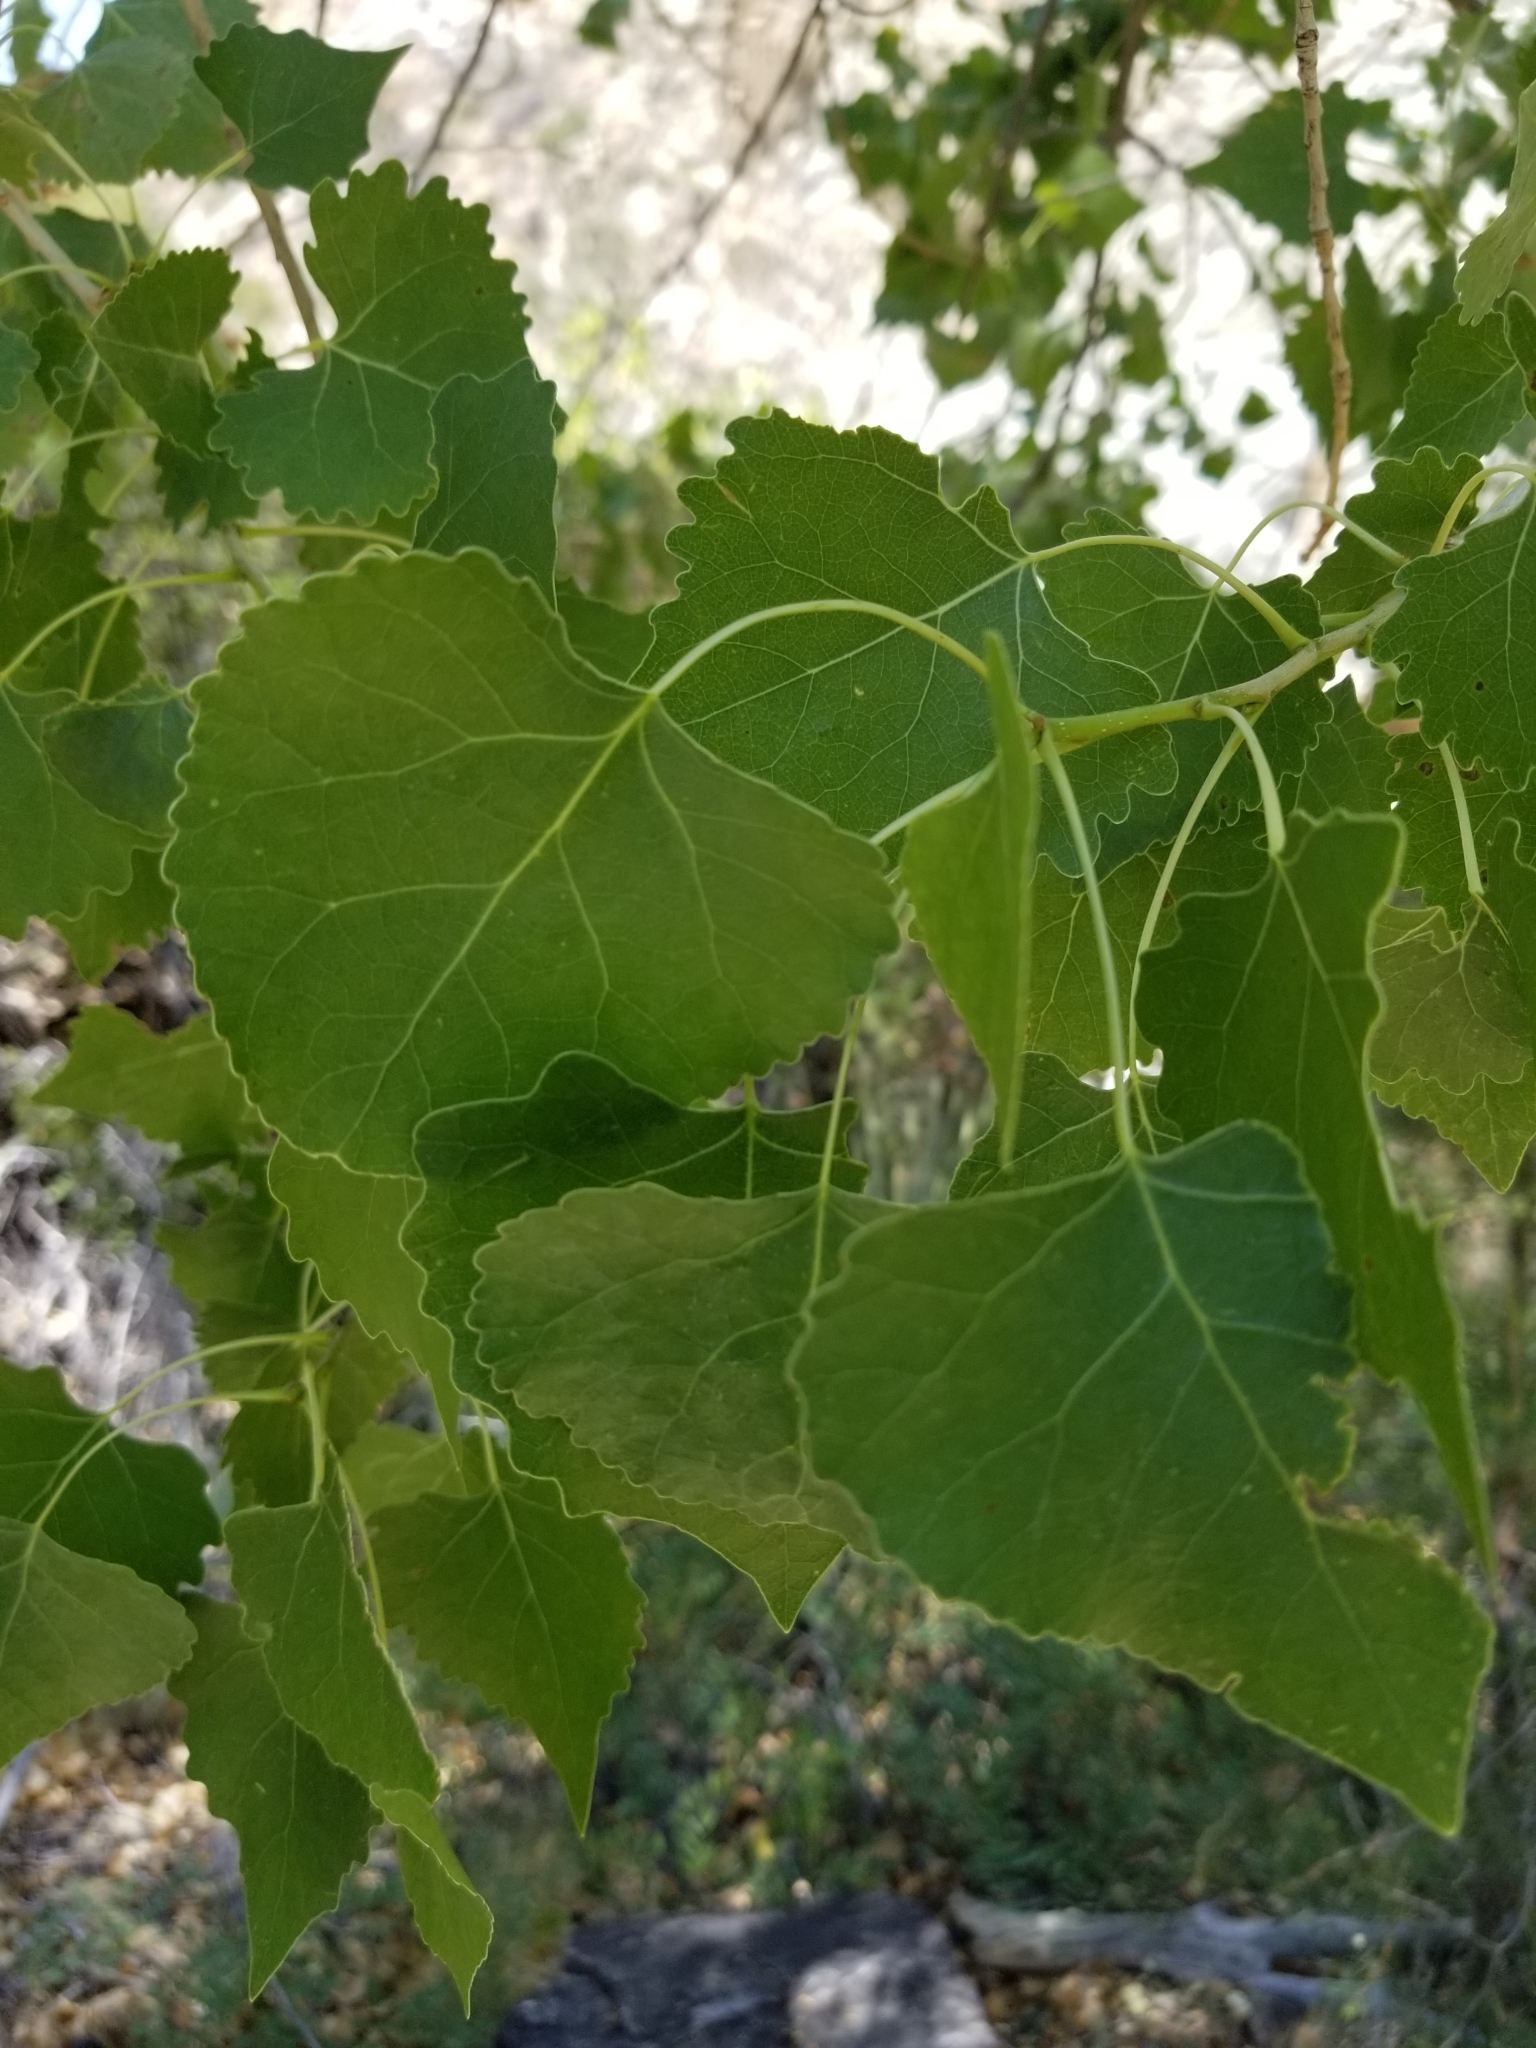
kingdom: Plantae
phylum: Tracheophyta
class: Magnoliopsida
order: Malpighiales
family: Salicaceae
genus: Populus
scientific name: Populus fremontii
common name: Fremont's cottonwood
